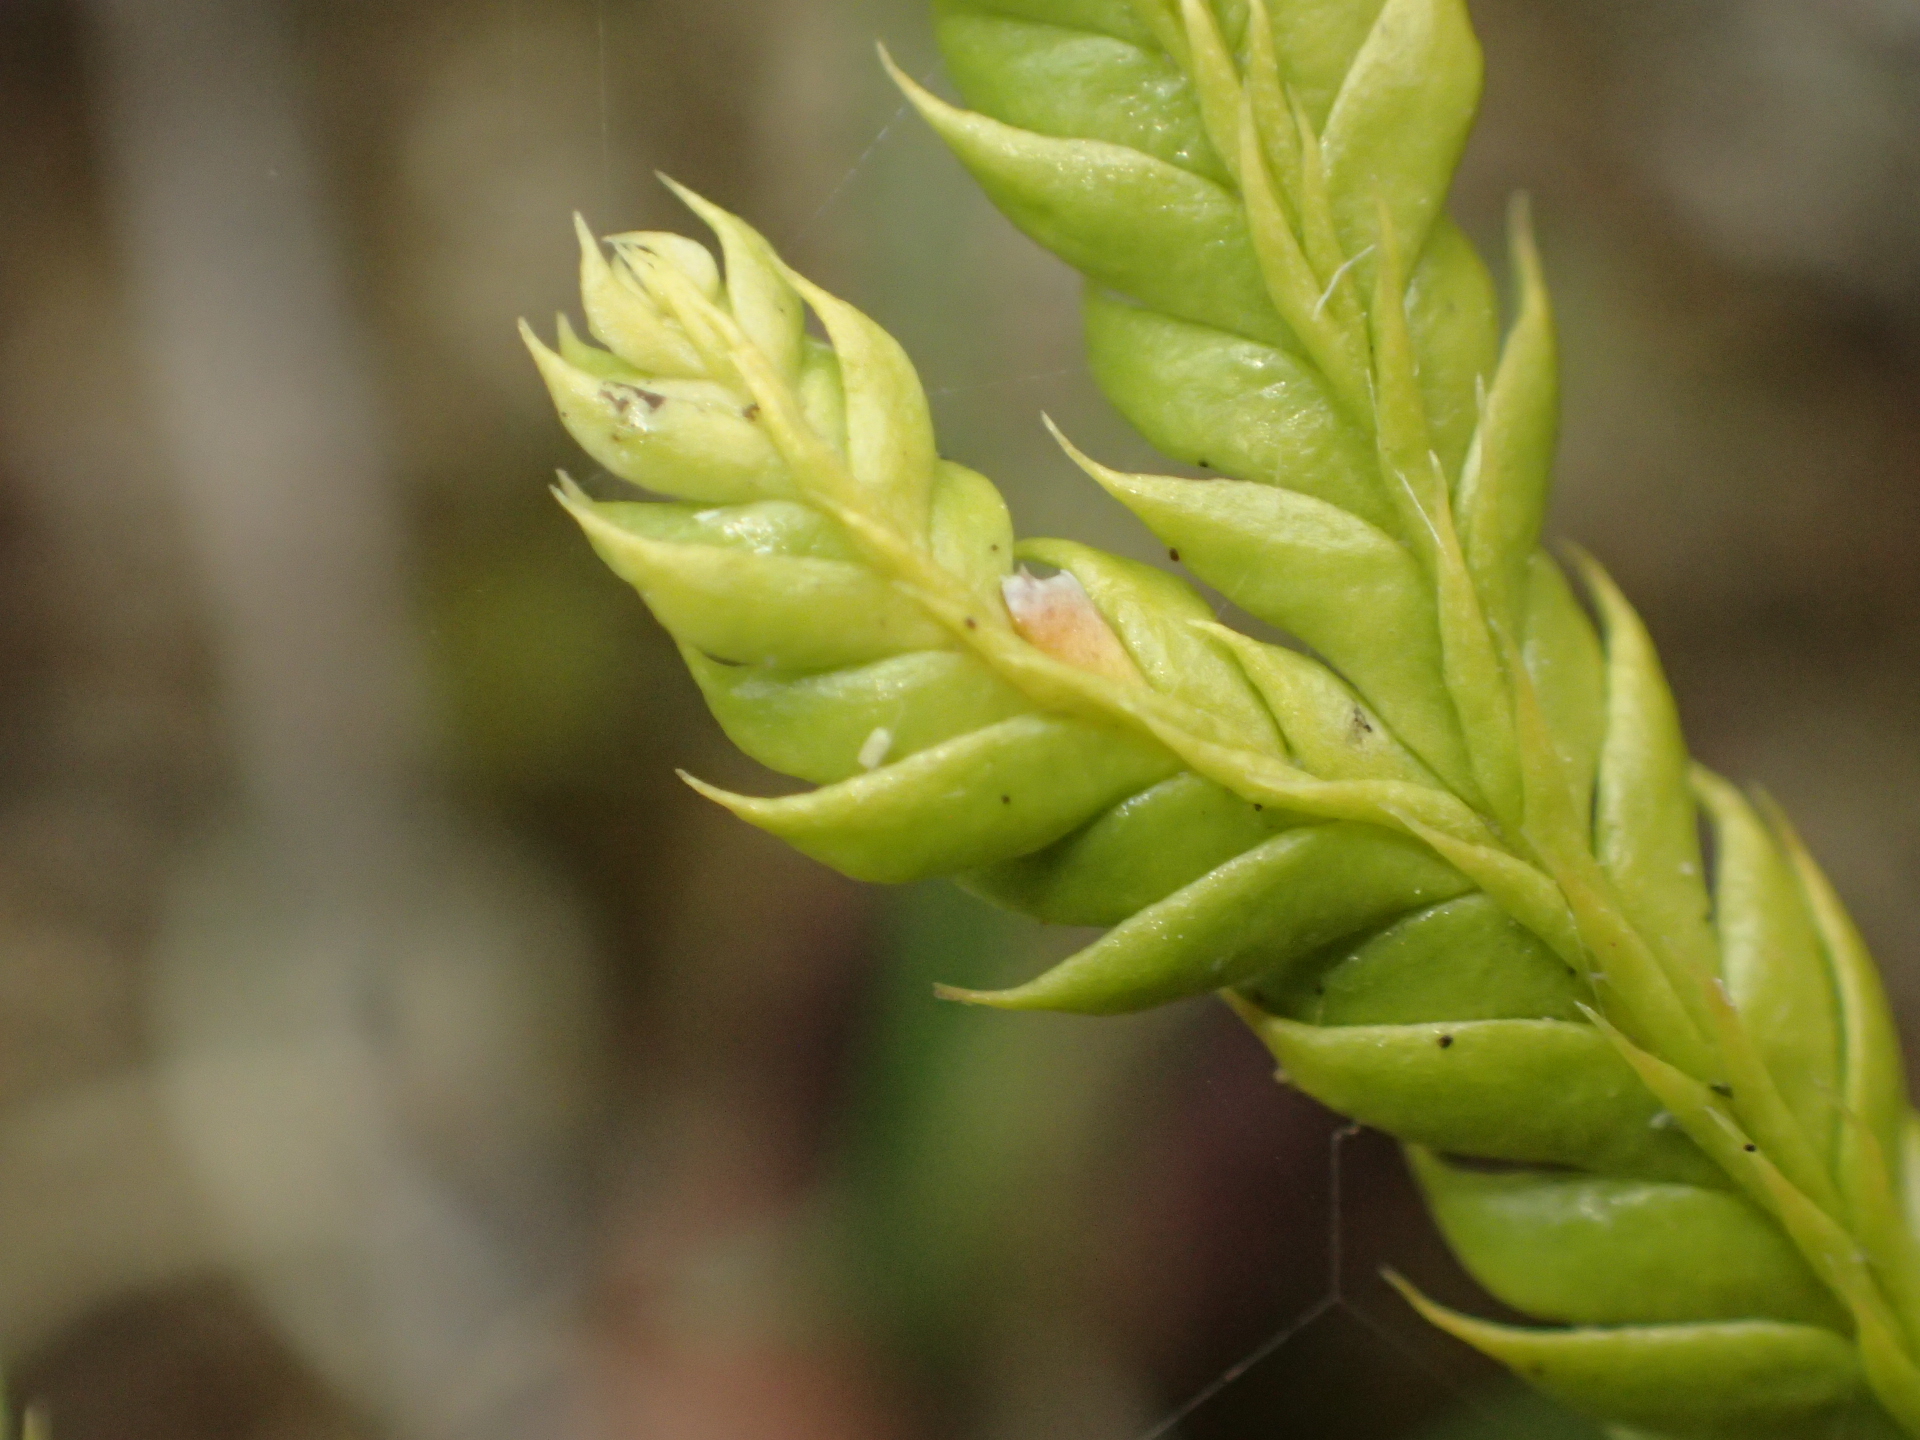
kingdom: Plantae
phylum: Tracheophyta
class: Lycopodiopsida
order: Lycopodiales
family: Lycopodiaceae
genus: Lycopodium
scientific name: Lycopodium volubile
